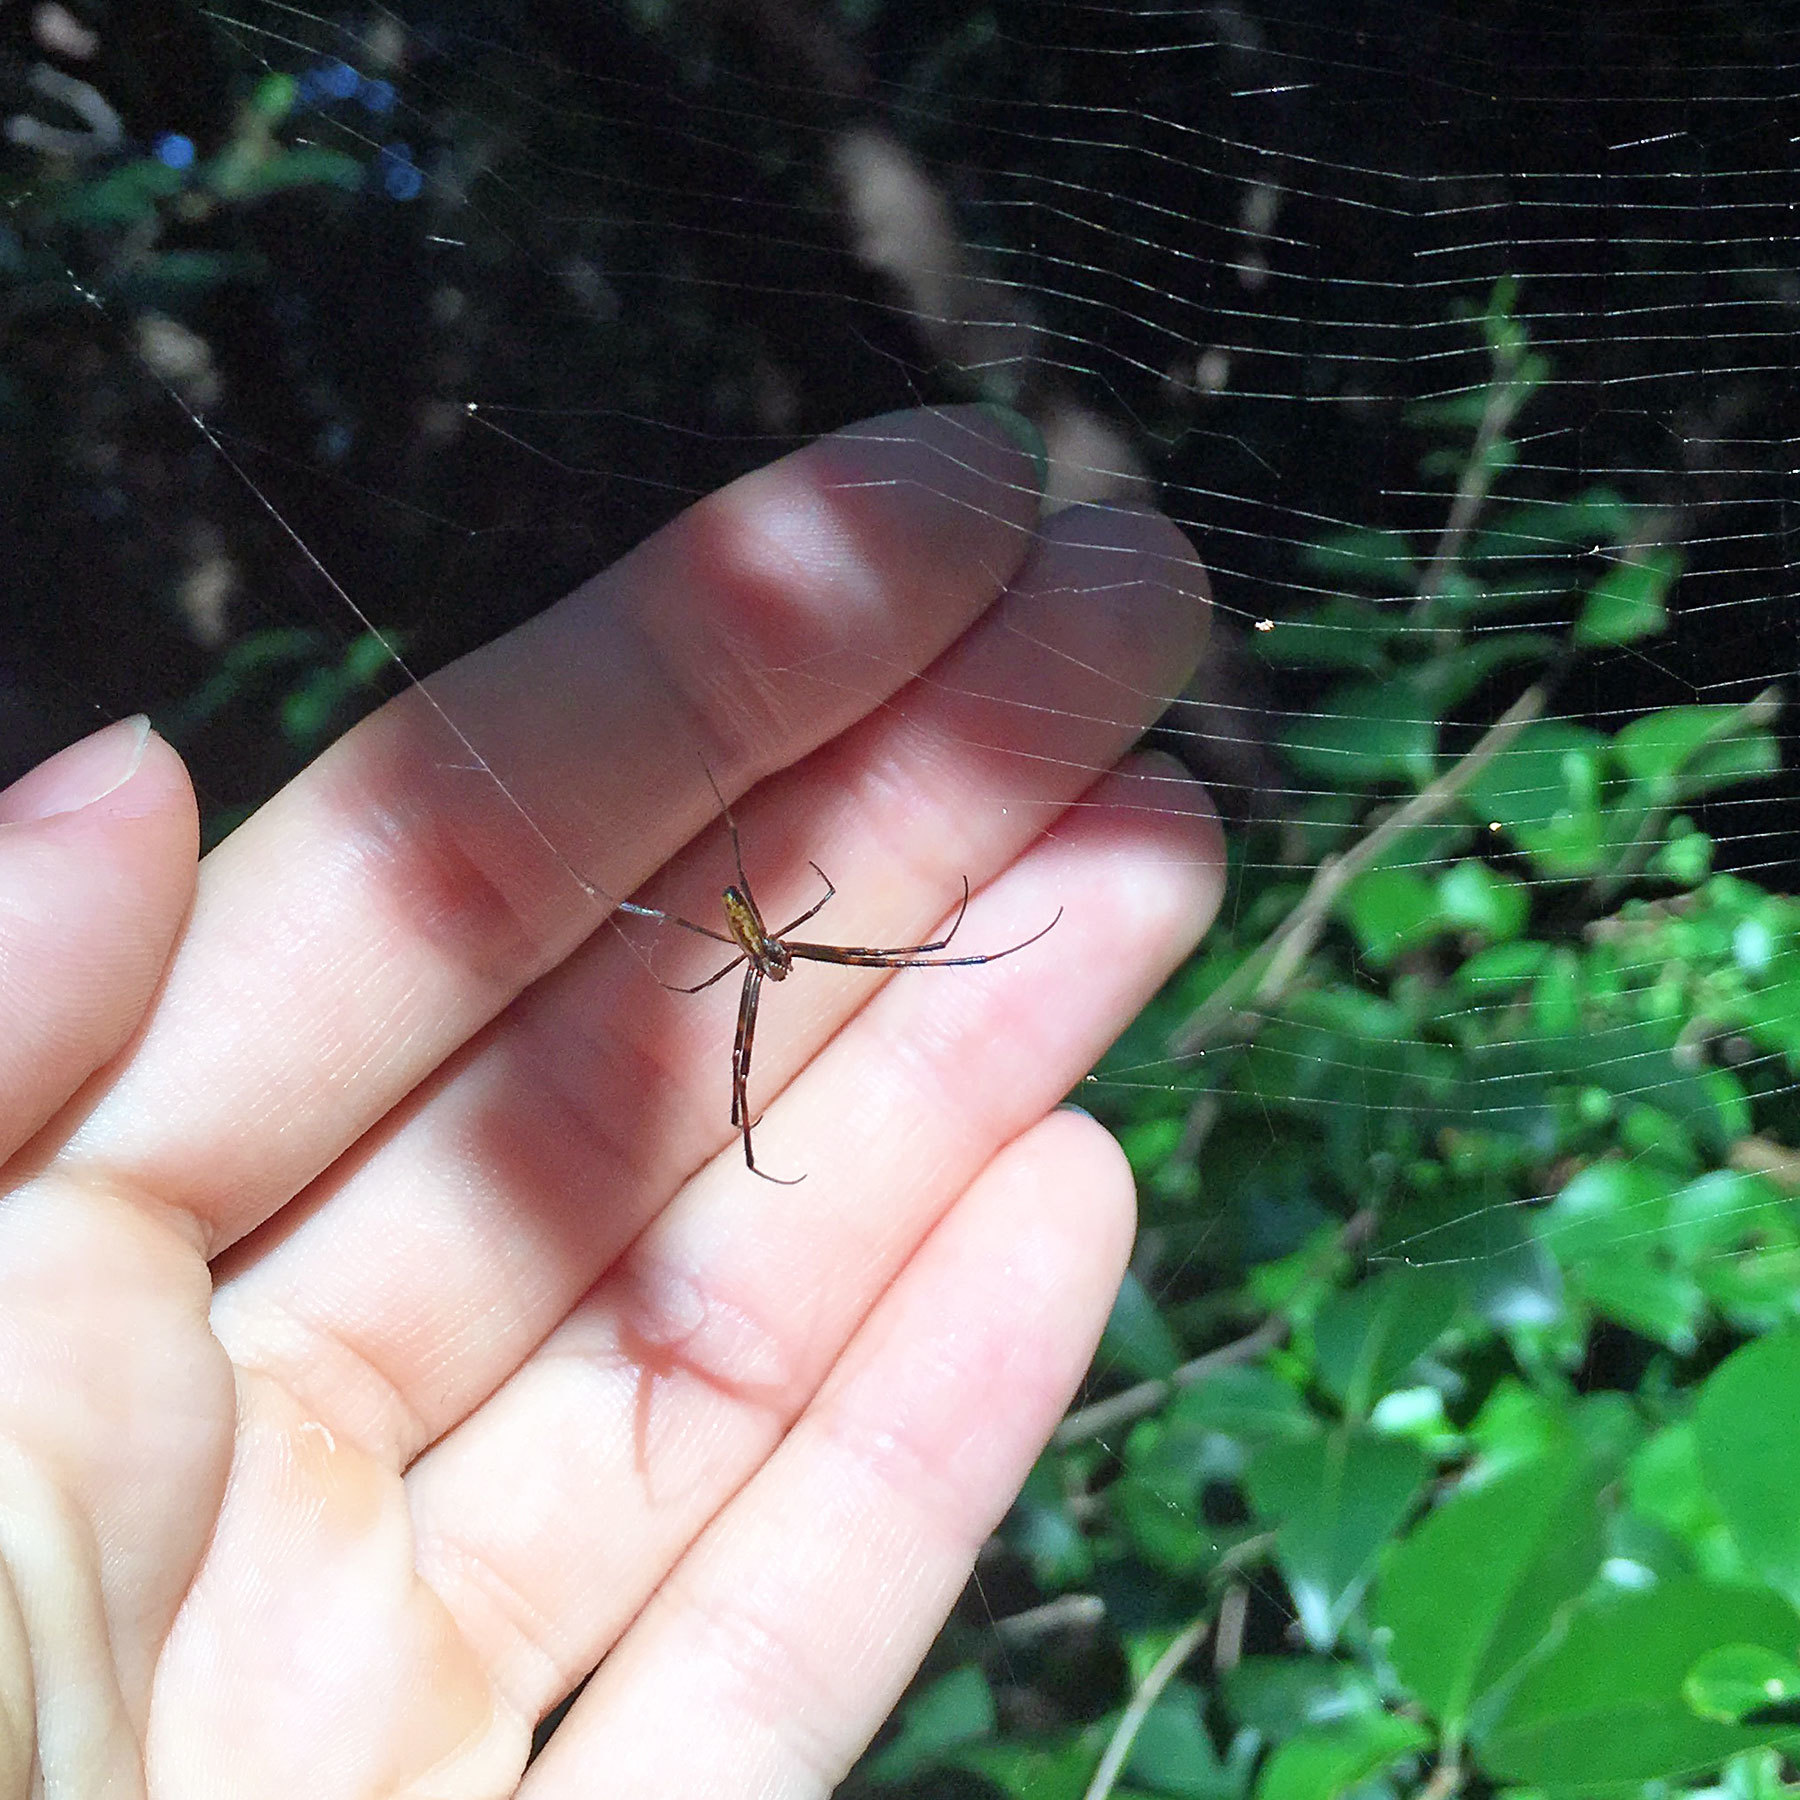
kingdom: Animalia
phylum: Arthropoda
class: Arachnida
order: Araneae
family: Araneidae
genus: Trichonephila
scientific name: Trichonephila clavata
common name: Jorō spider
